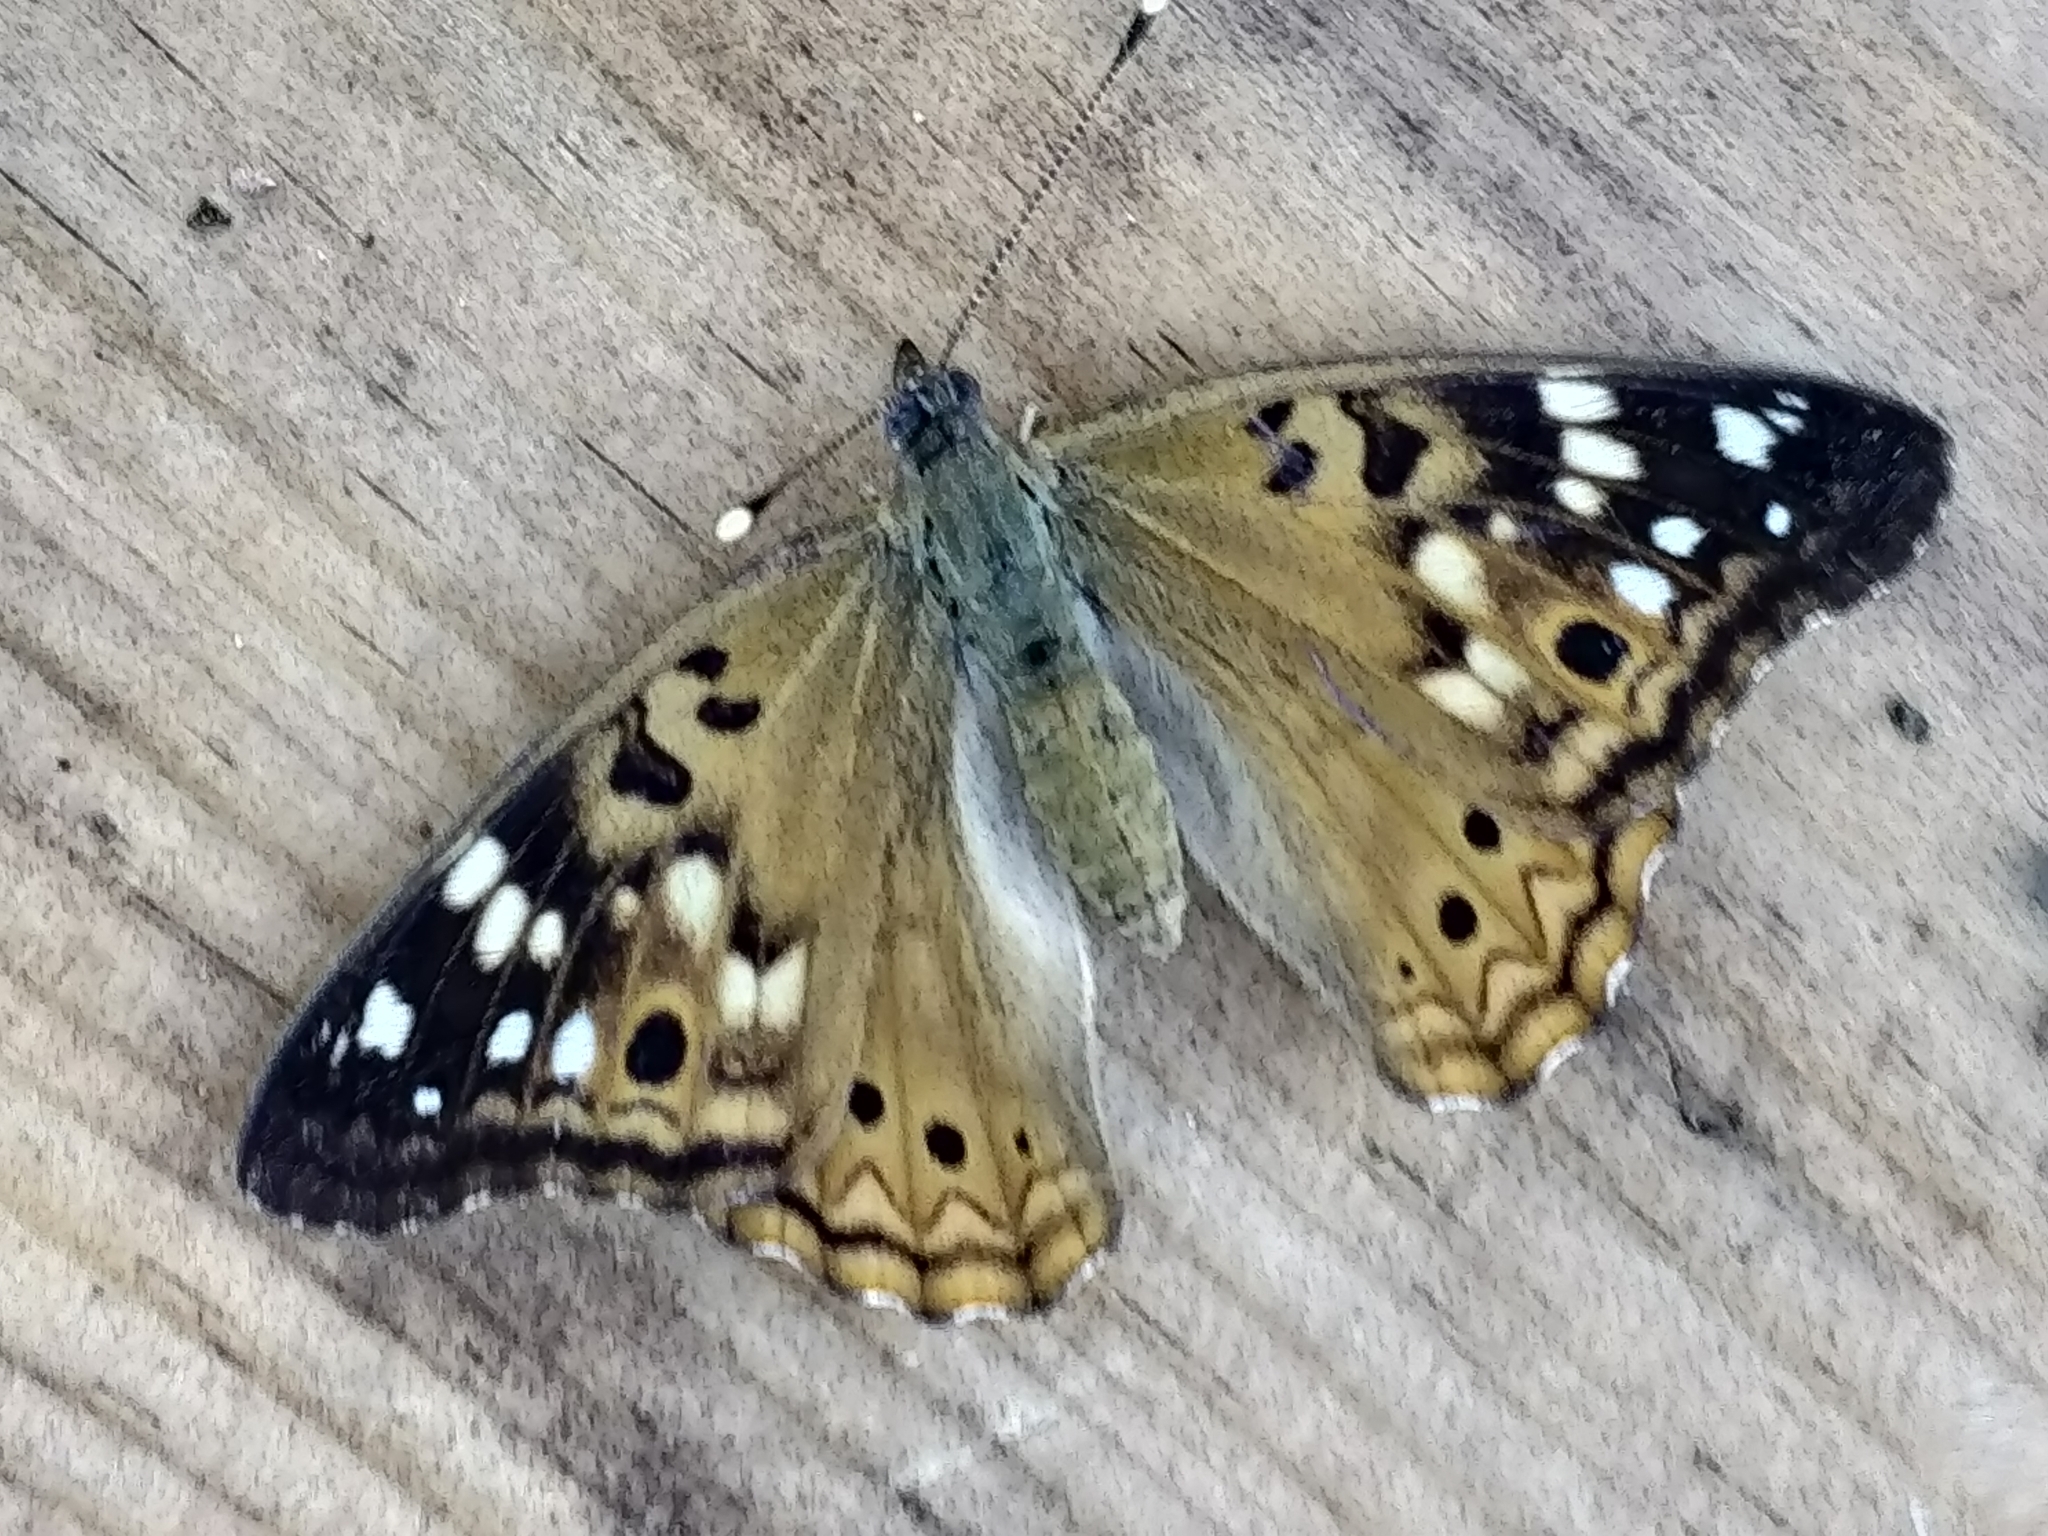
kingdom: Animalia
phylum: Arthropoda
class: Insecta
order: Lepidoptera
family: Nymphalidae
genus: Asterocampa
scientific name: Asterocampa celtis
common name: Hackberry emperor
